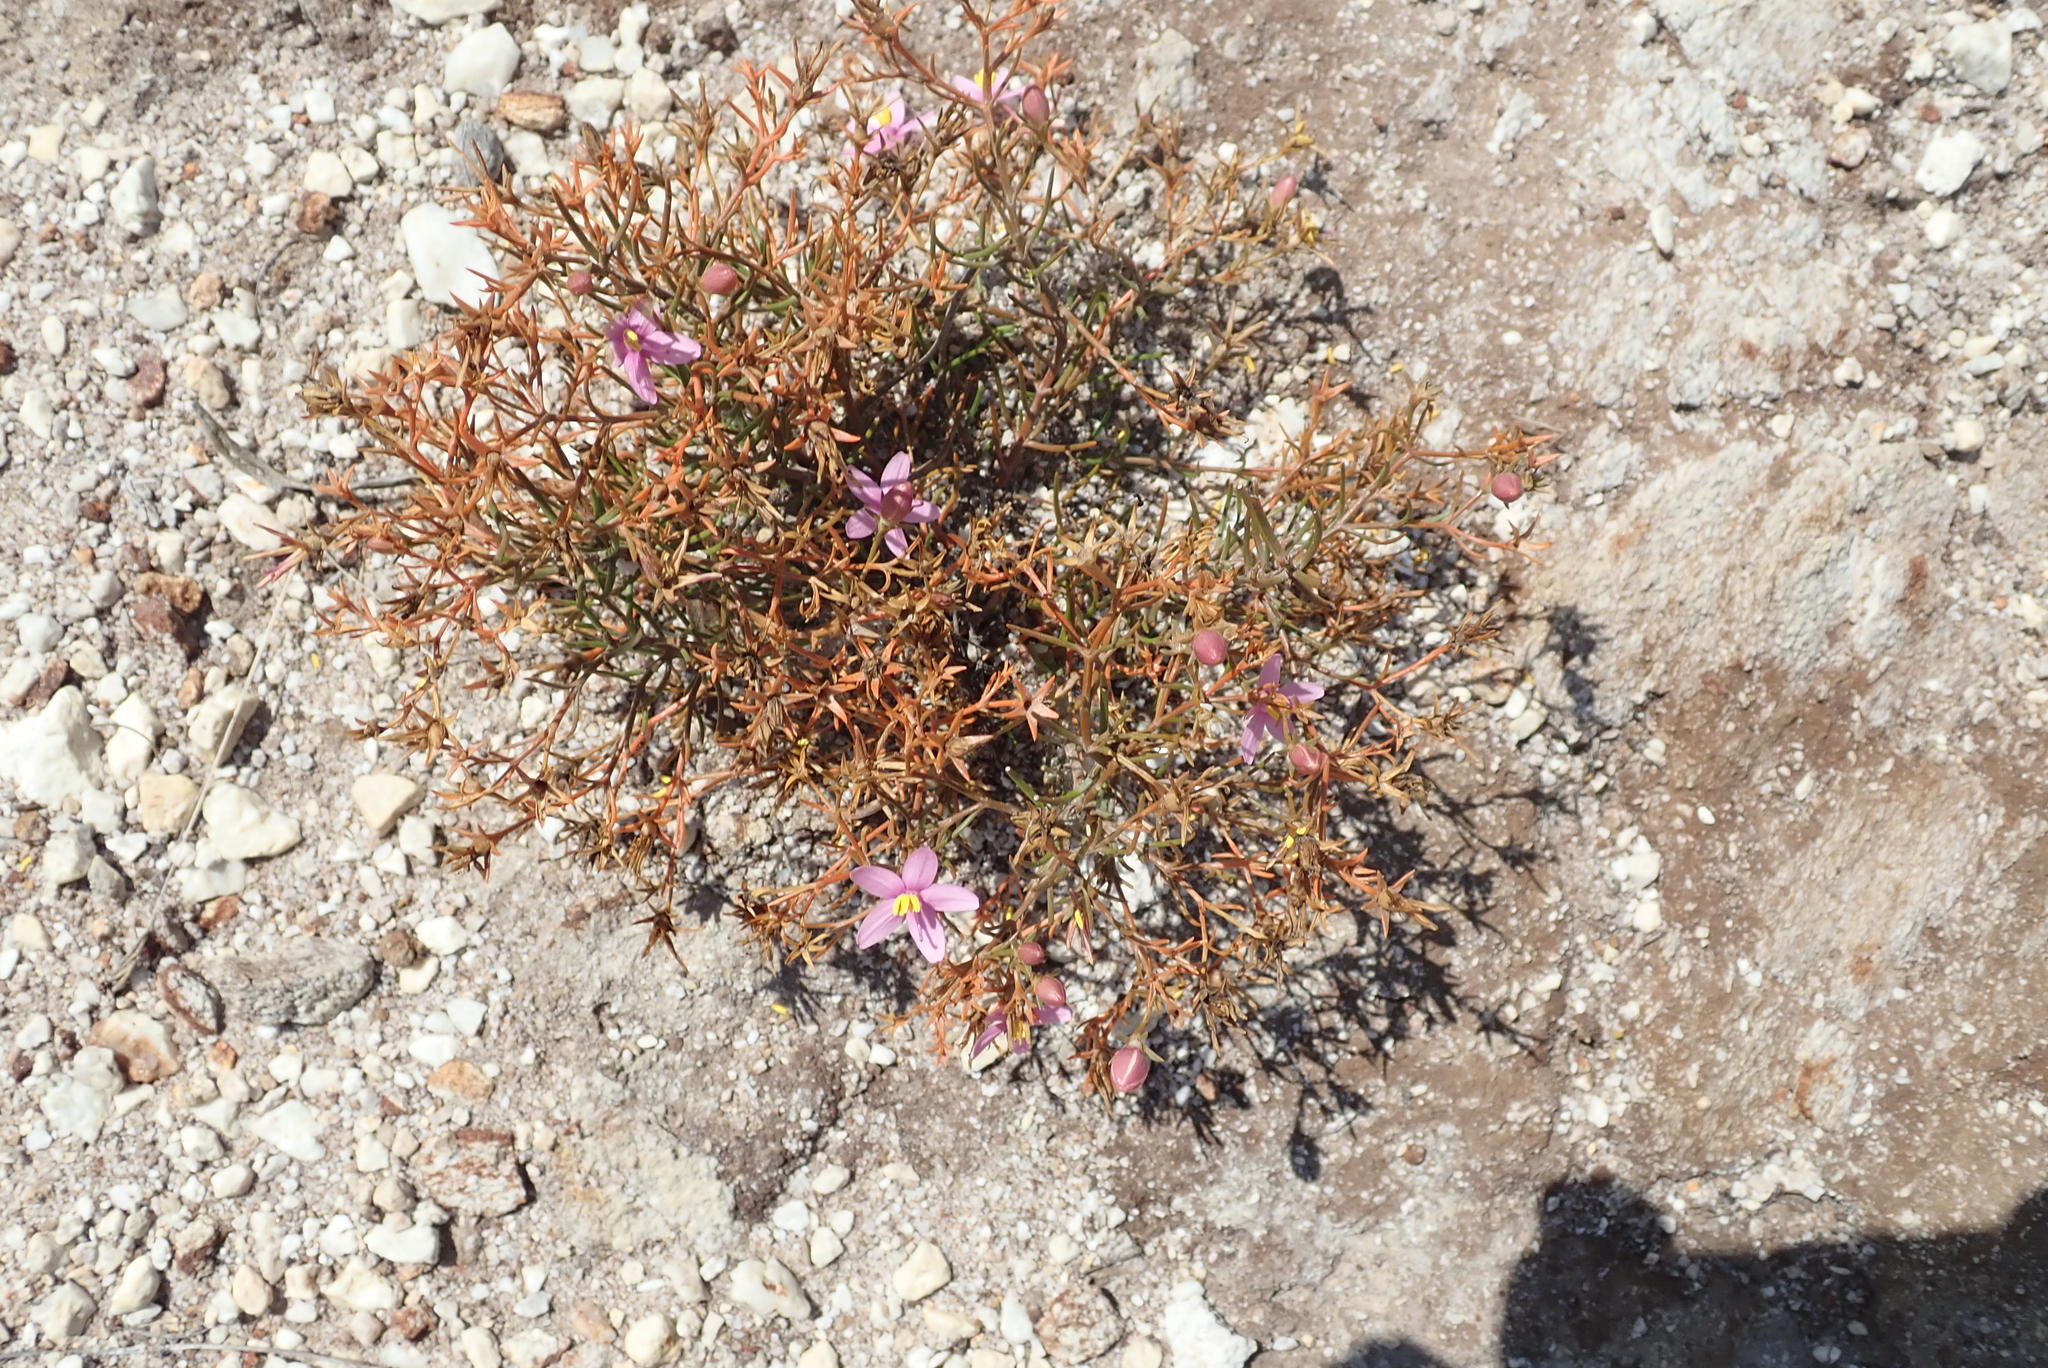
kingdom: Plantae
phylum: Tracheophyta
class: Magnoliopsida
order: Gentianales
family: Gentianaceae
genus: Chironia
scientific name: Chironia linoides
